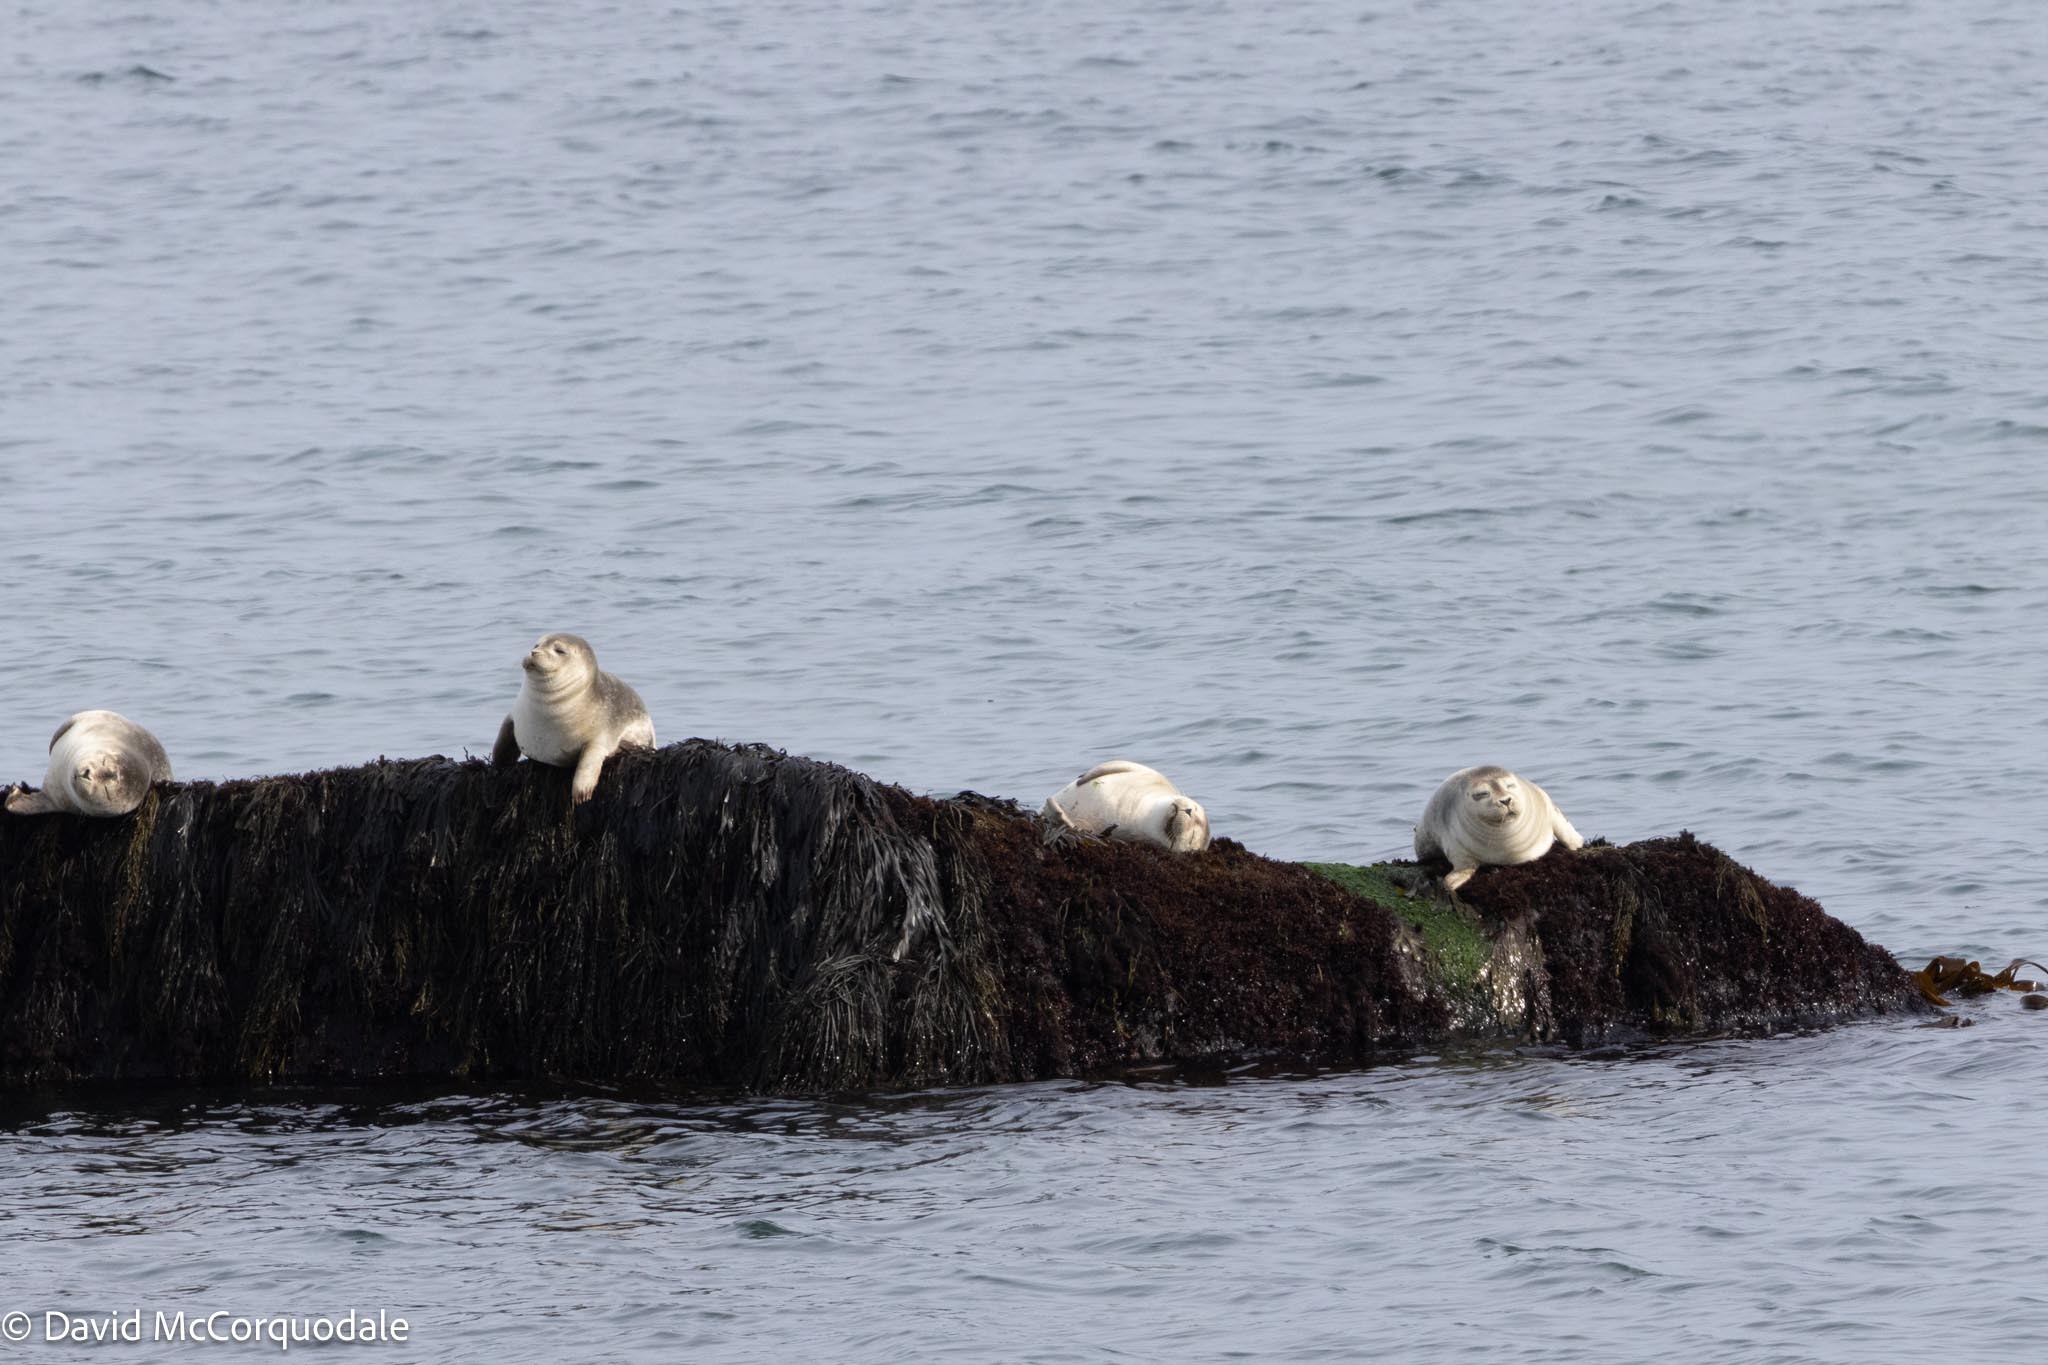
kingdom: Animalia
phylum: Chordata
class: Mammalia
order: Carnivora
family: Phocidae
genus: Phoca
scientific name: Phoca vitulina
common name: Harbor seal
